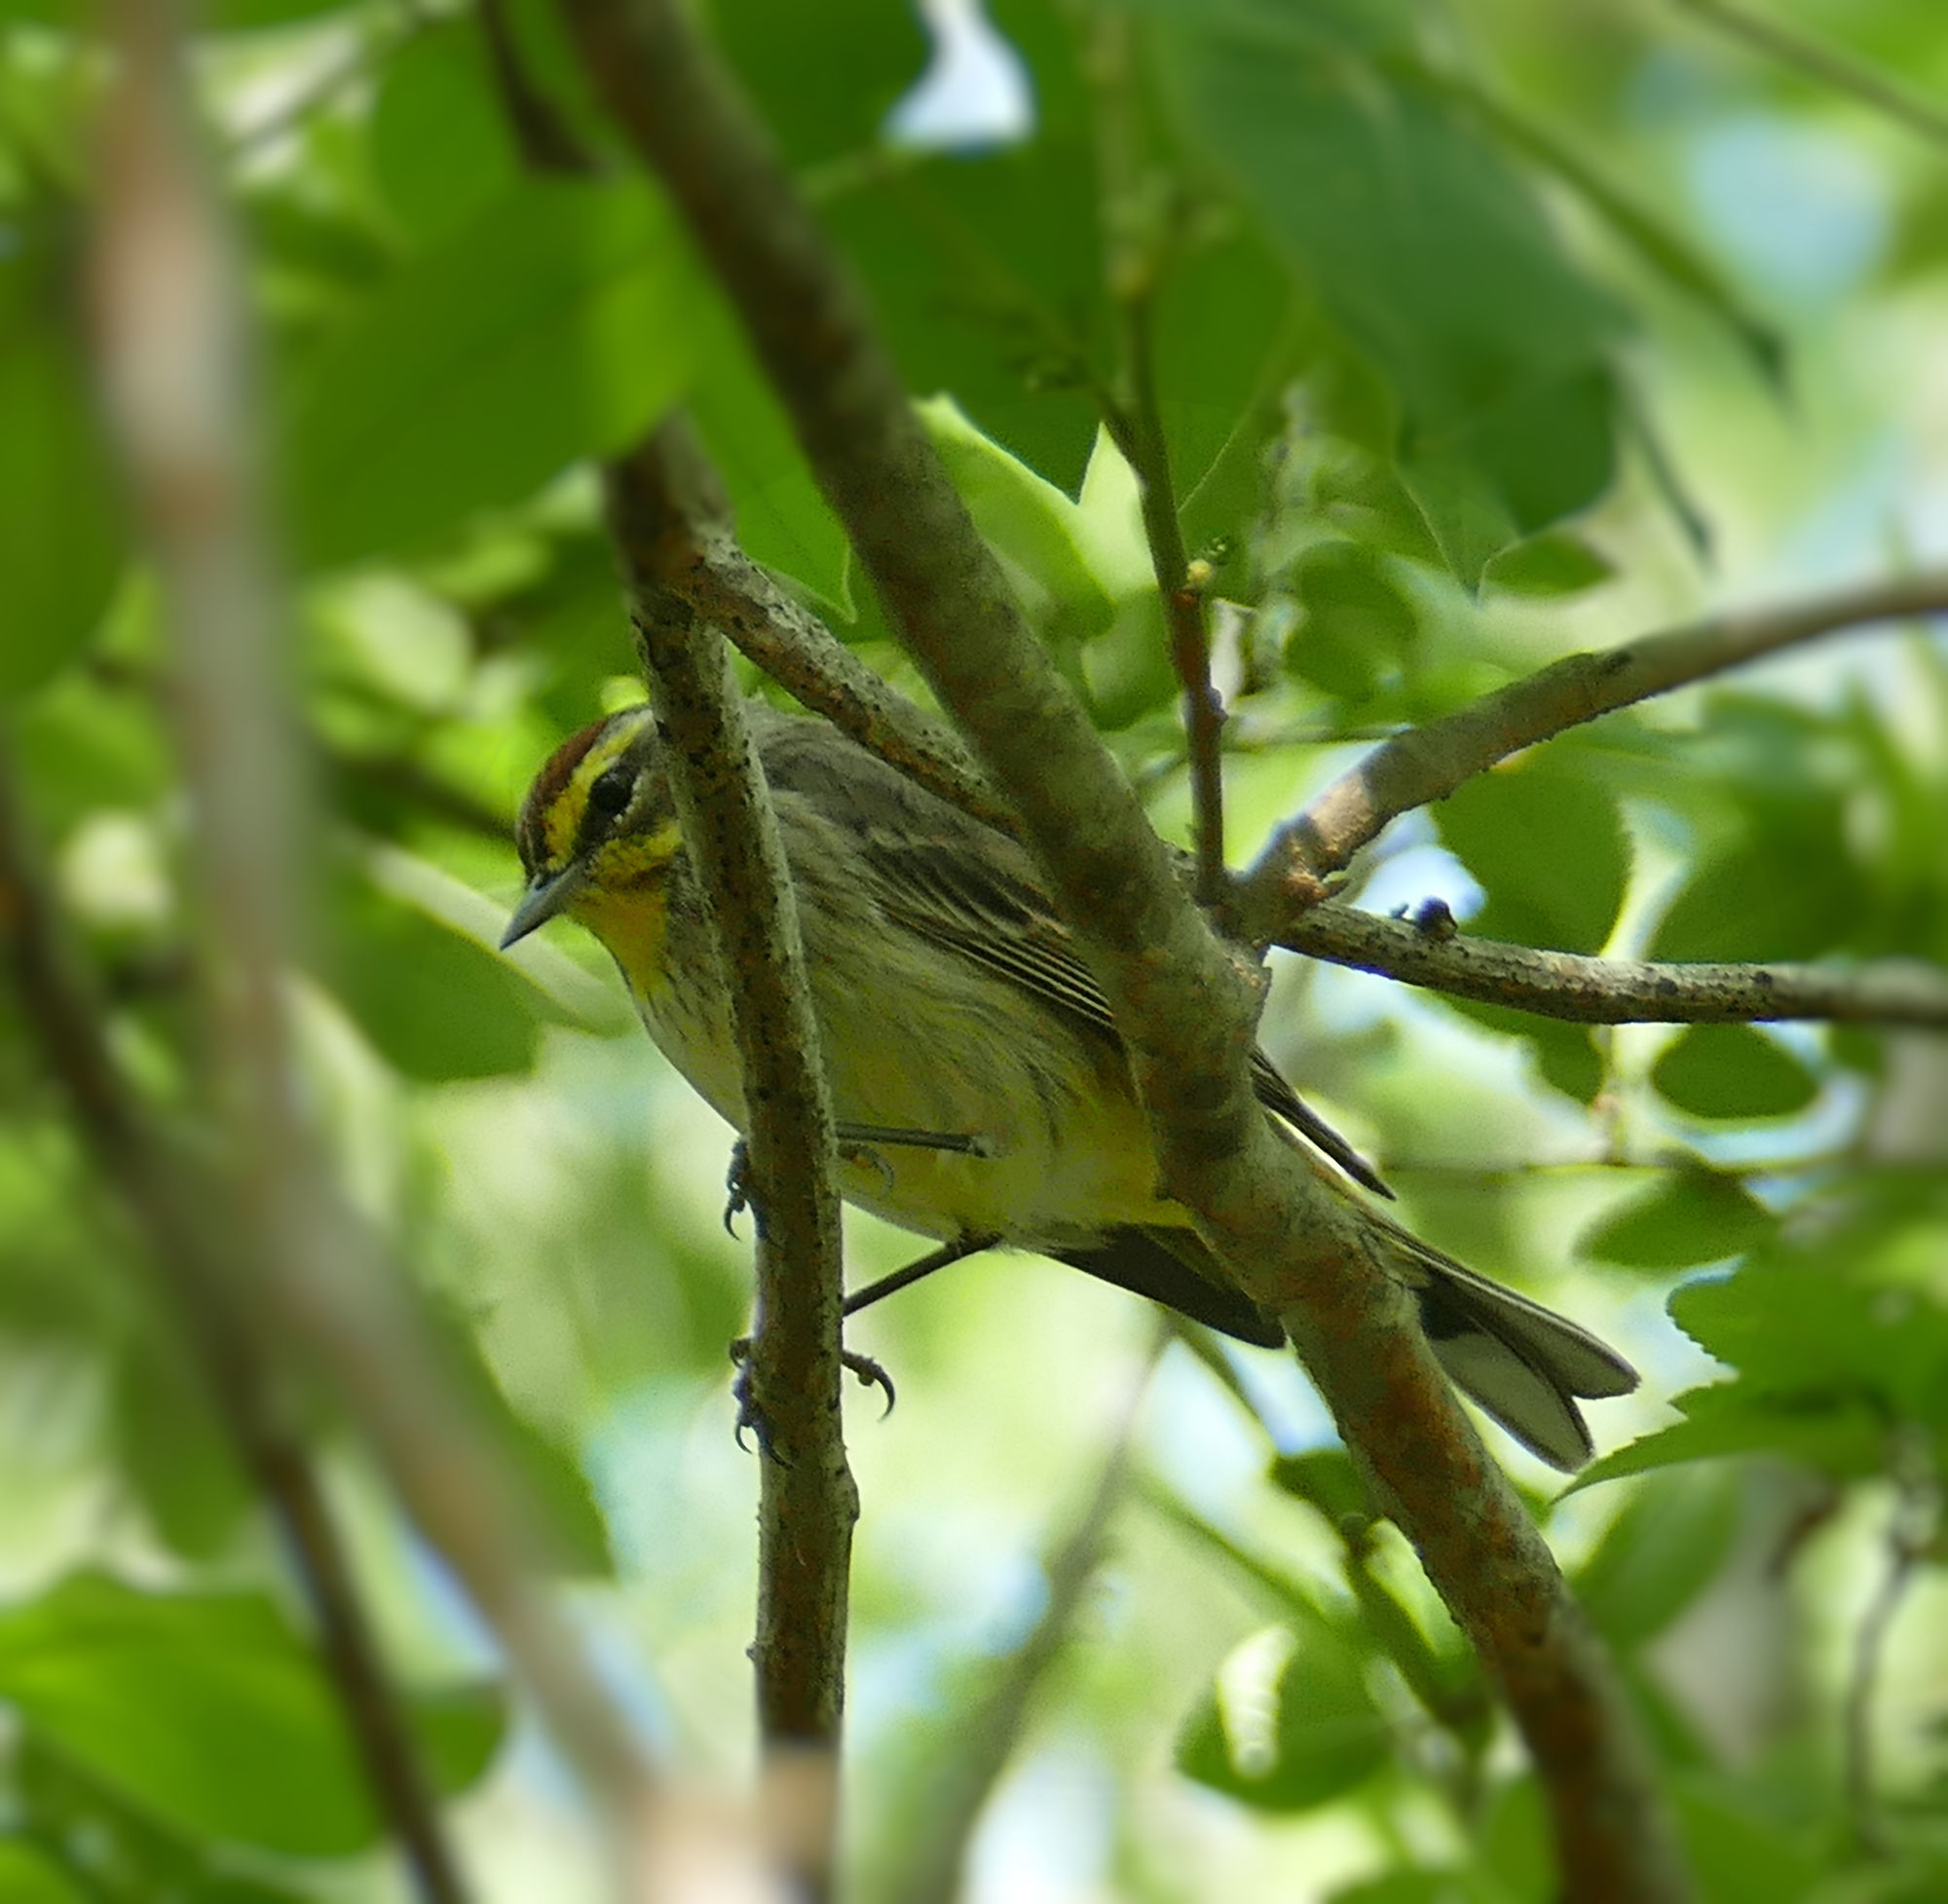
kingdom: Animalia
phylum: Chordata
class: Aves
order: Passeriformes
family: Parulidae
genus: Setophaga
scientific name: Setophaga palmarum
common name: Palm warbler
